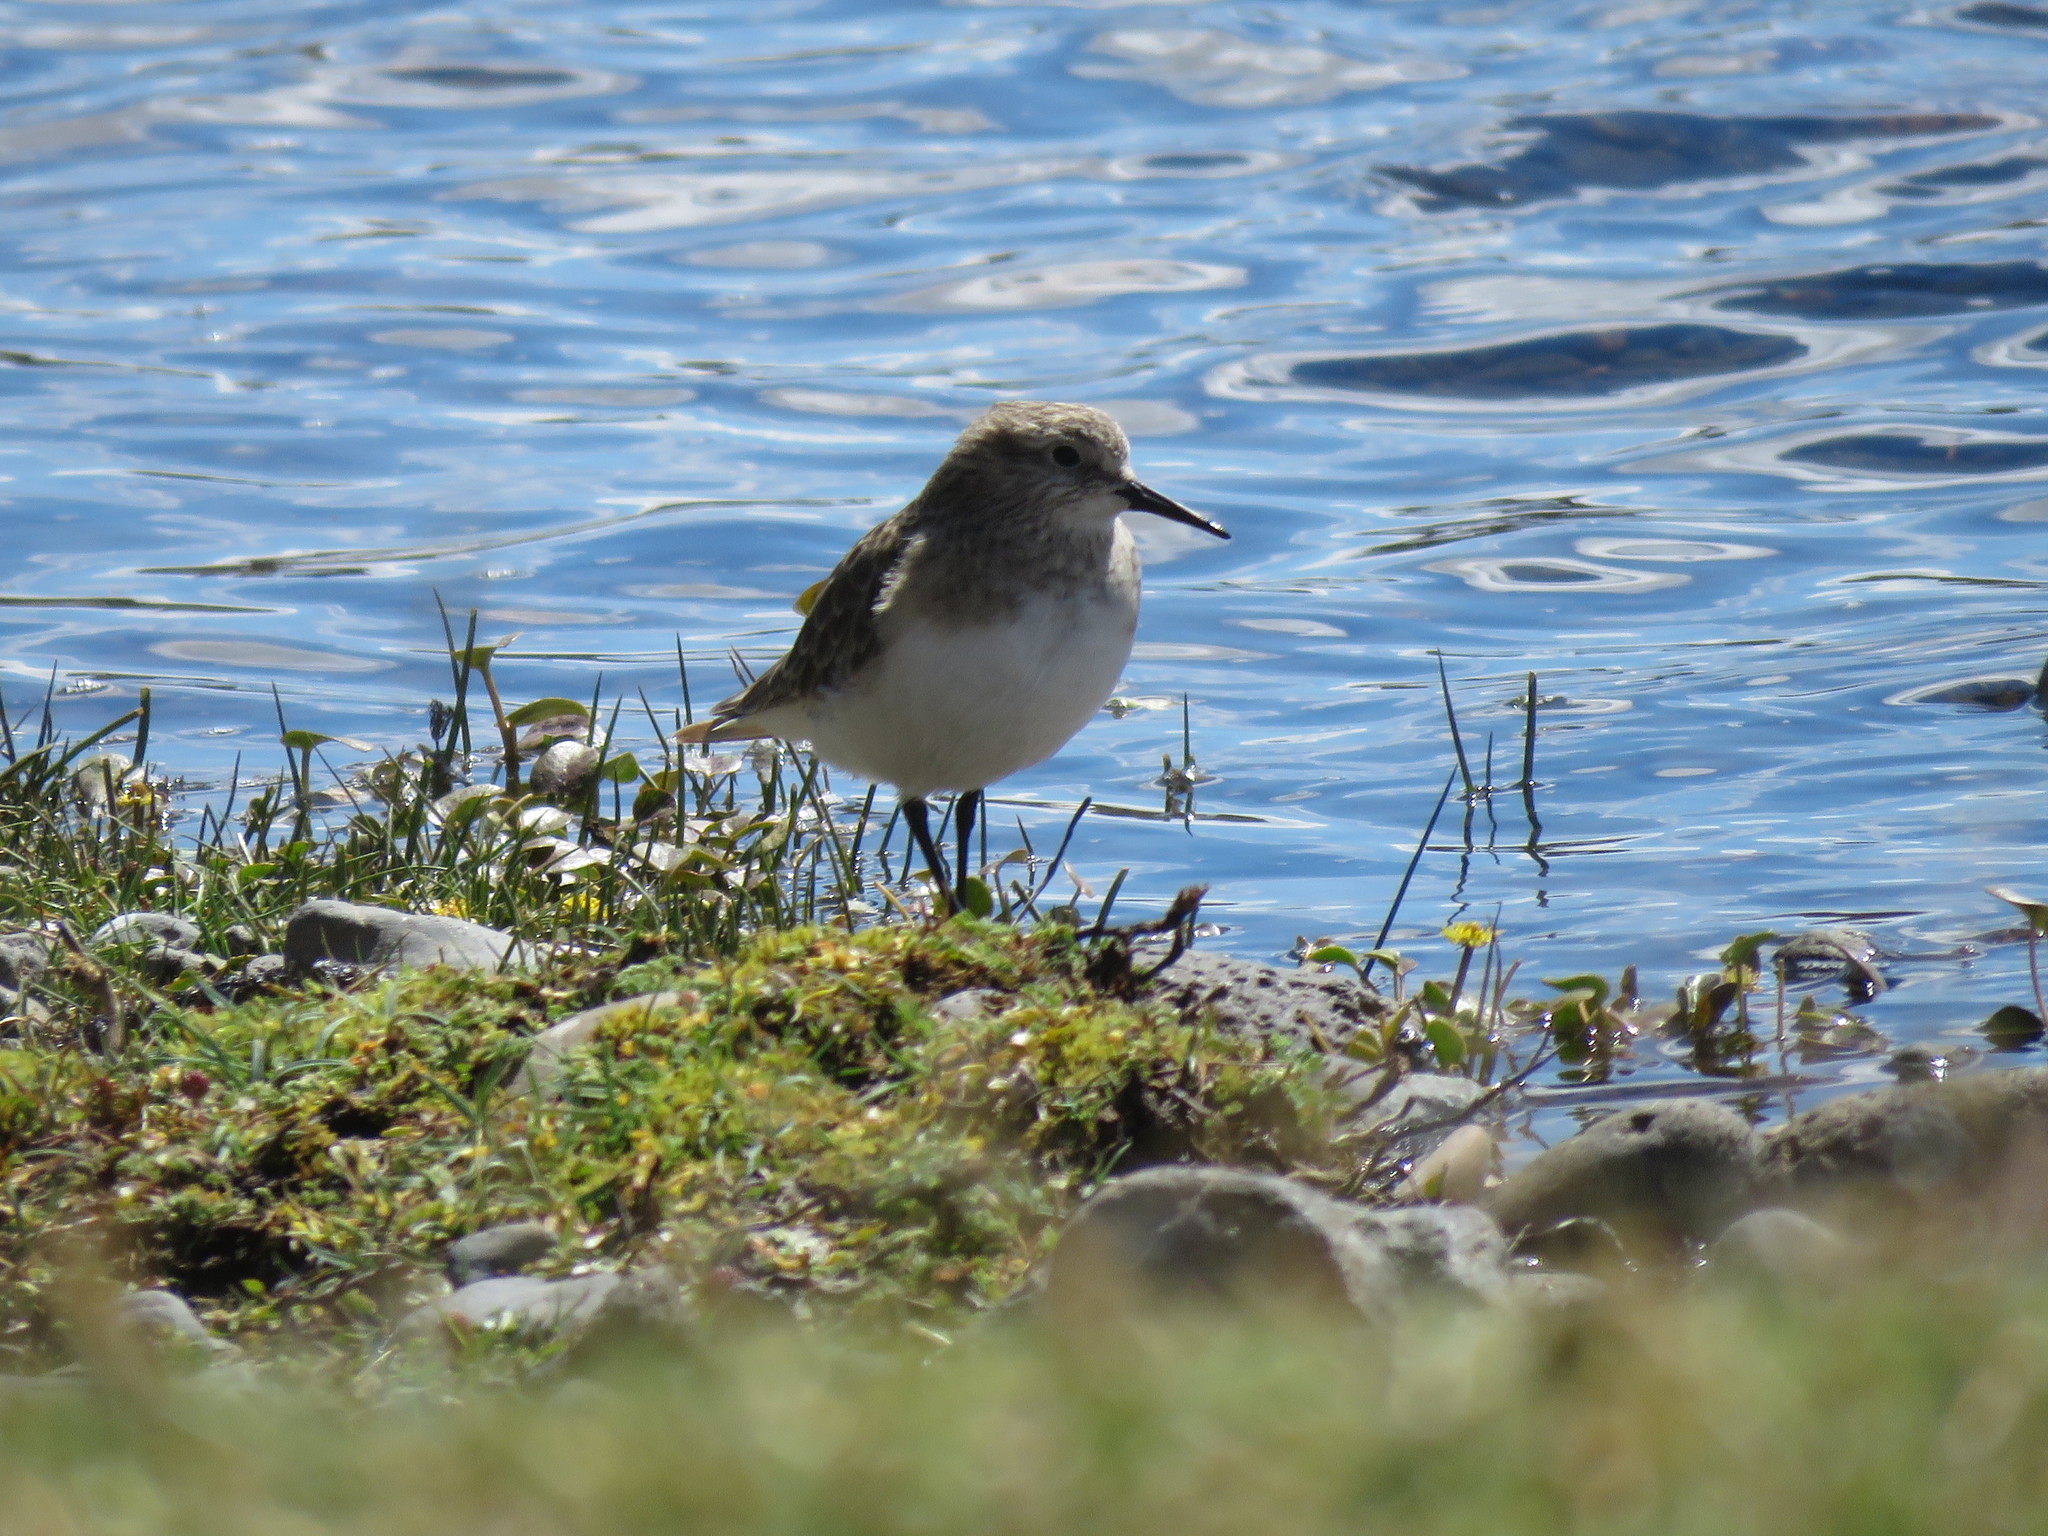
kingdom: Animalia
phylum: Chordata
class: Aves
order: Charadriiformes
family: Scolopacidae
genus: Calidris
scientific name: Calidris bairdii
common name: Baird's sandpiper
